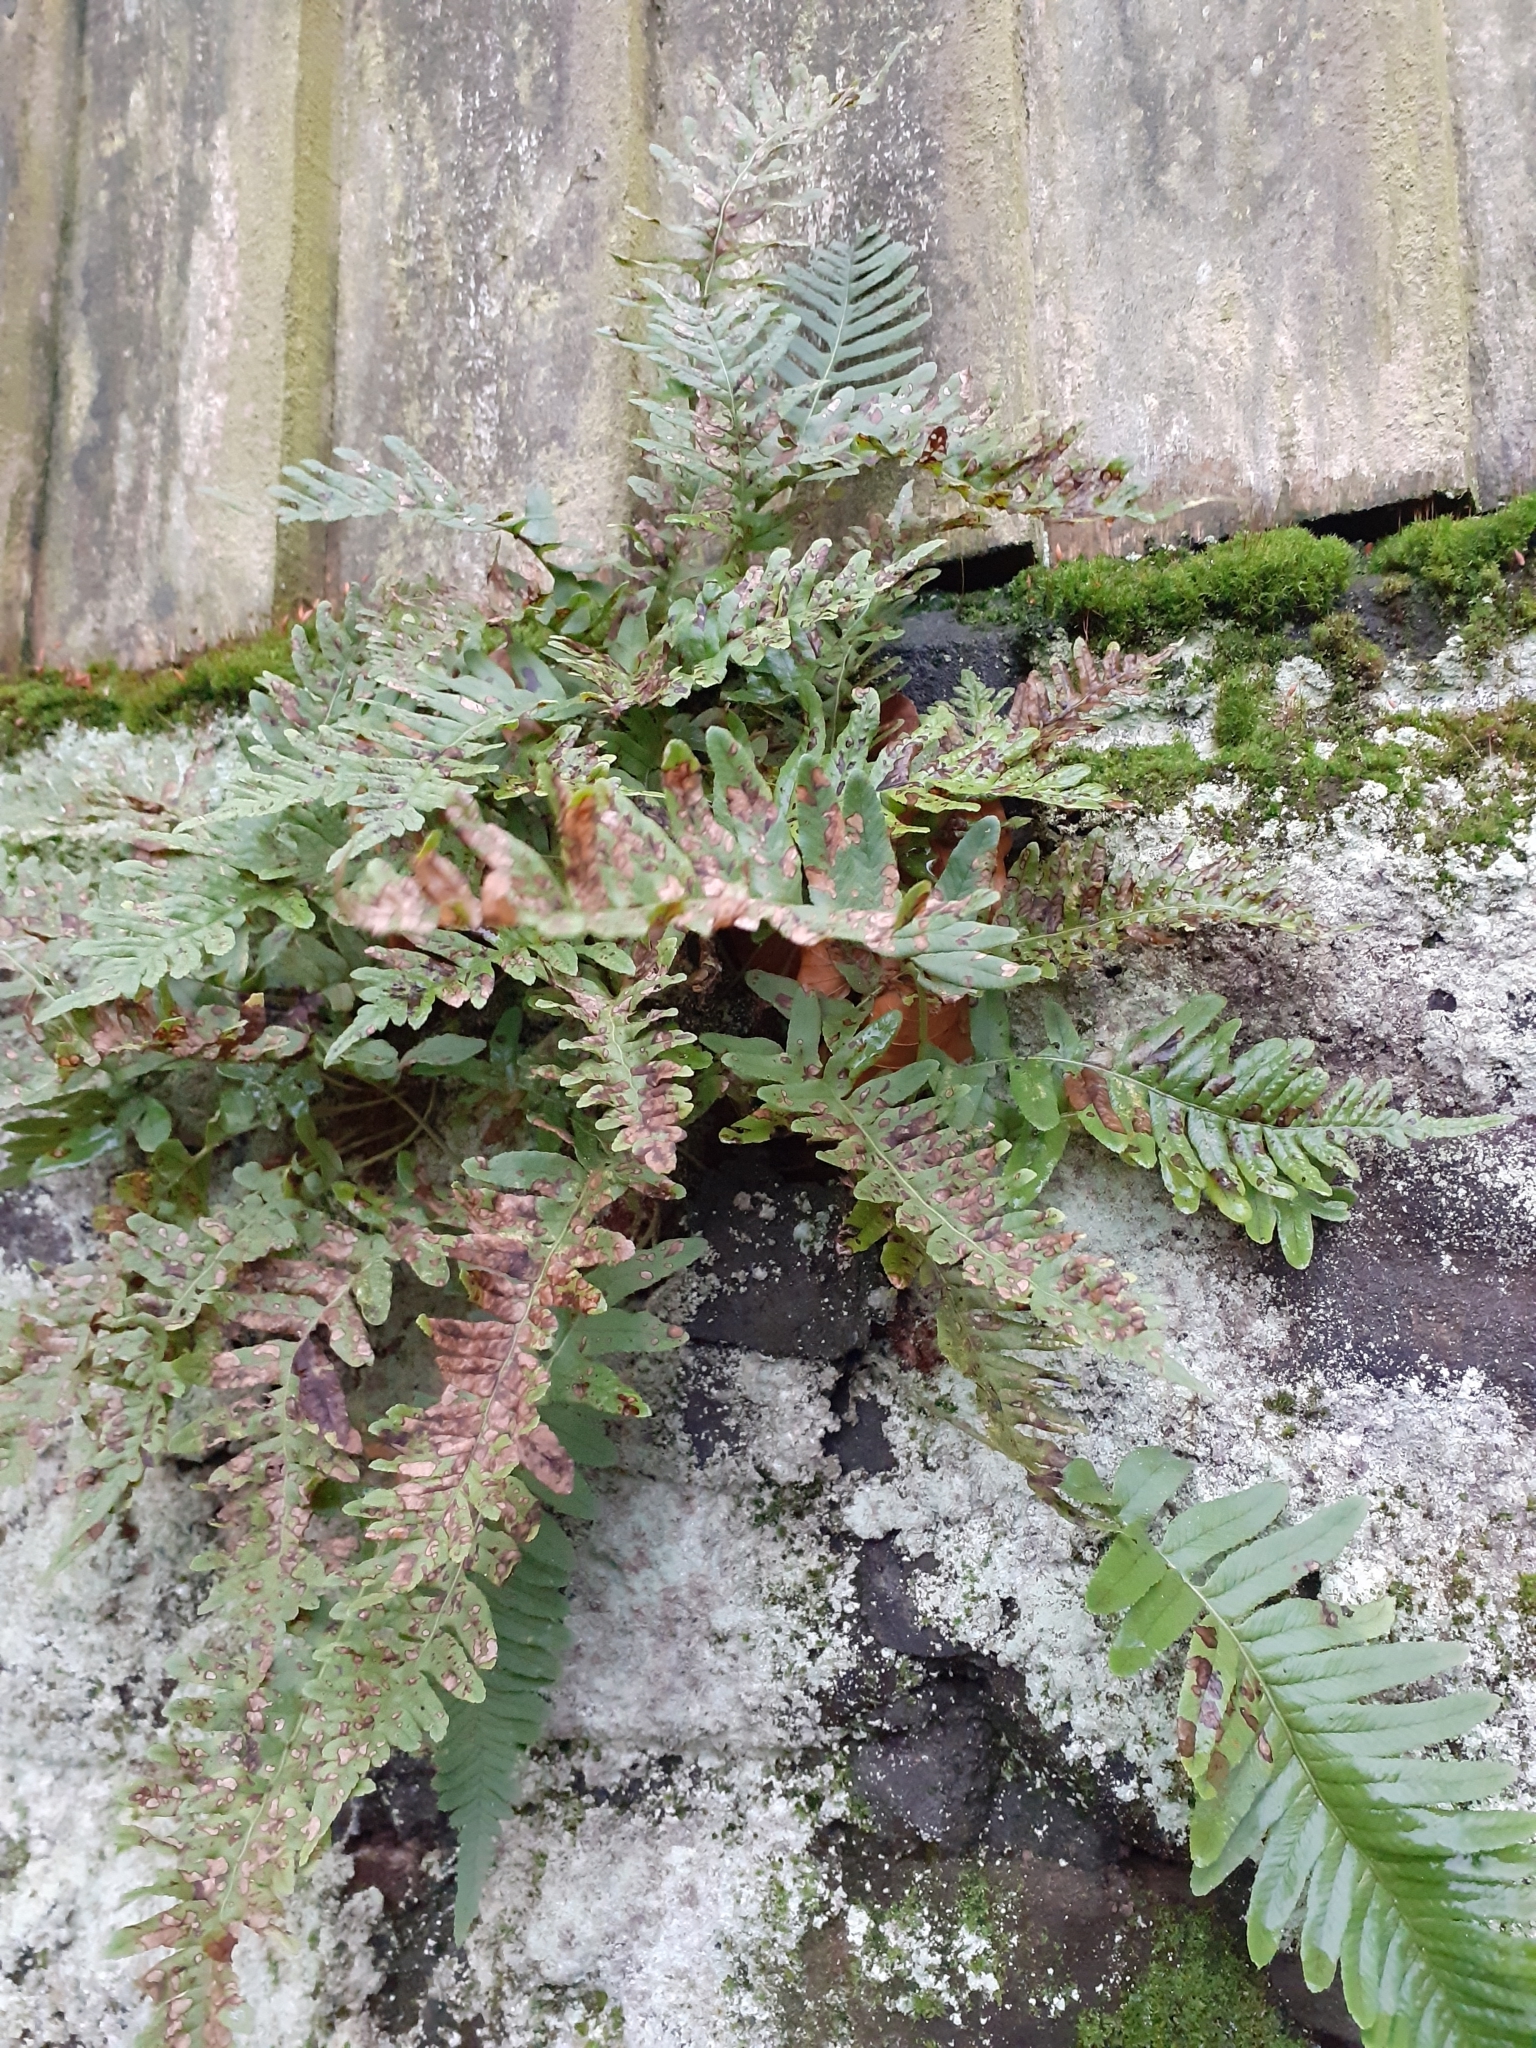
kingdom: Plantae
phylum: Tracheophyta
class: Polypodiopsida
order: Polypodiales
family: Polypodiaceae
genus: Polypodium
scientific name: Polypodium vulgare
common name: Common polypody
